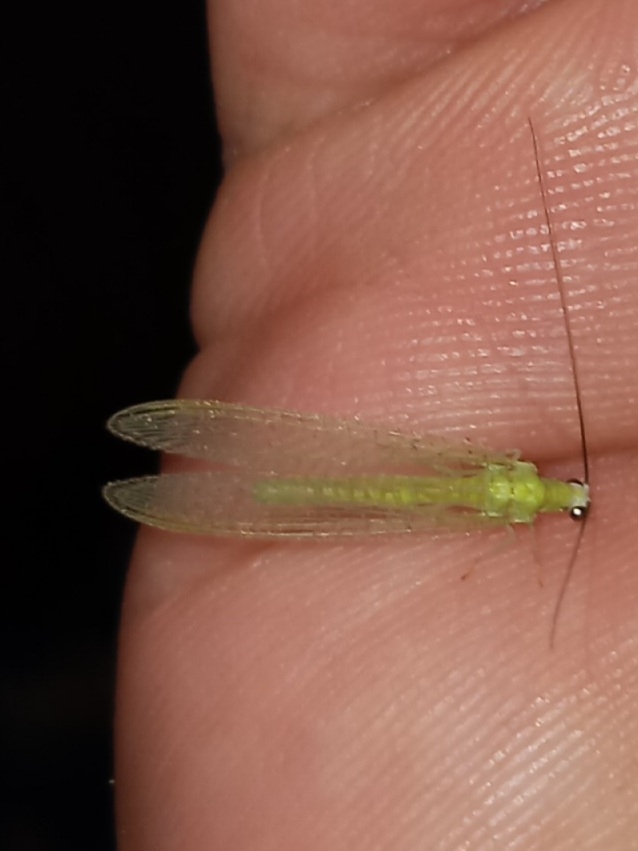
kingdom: Animalia
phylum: Arthropoda
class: Insecta
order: Neuroptera
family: Chrysopidae
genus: Chrysopa
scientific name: Chrysopa nigricornis
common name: Black-horned green lacewing
